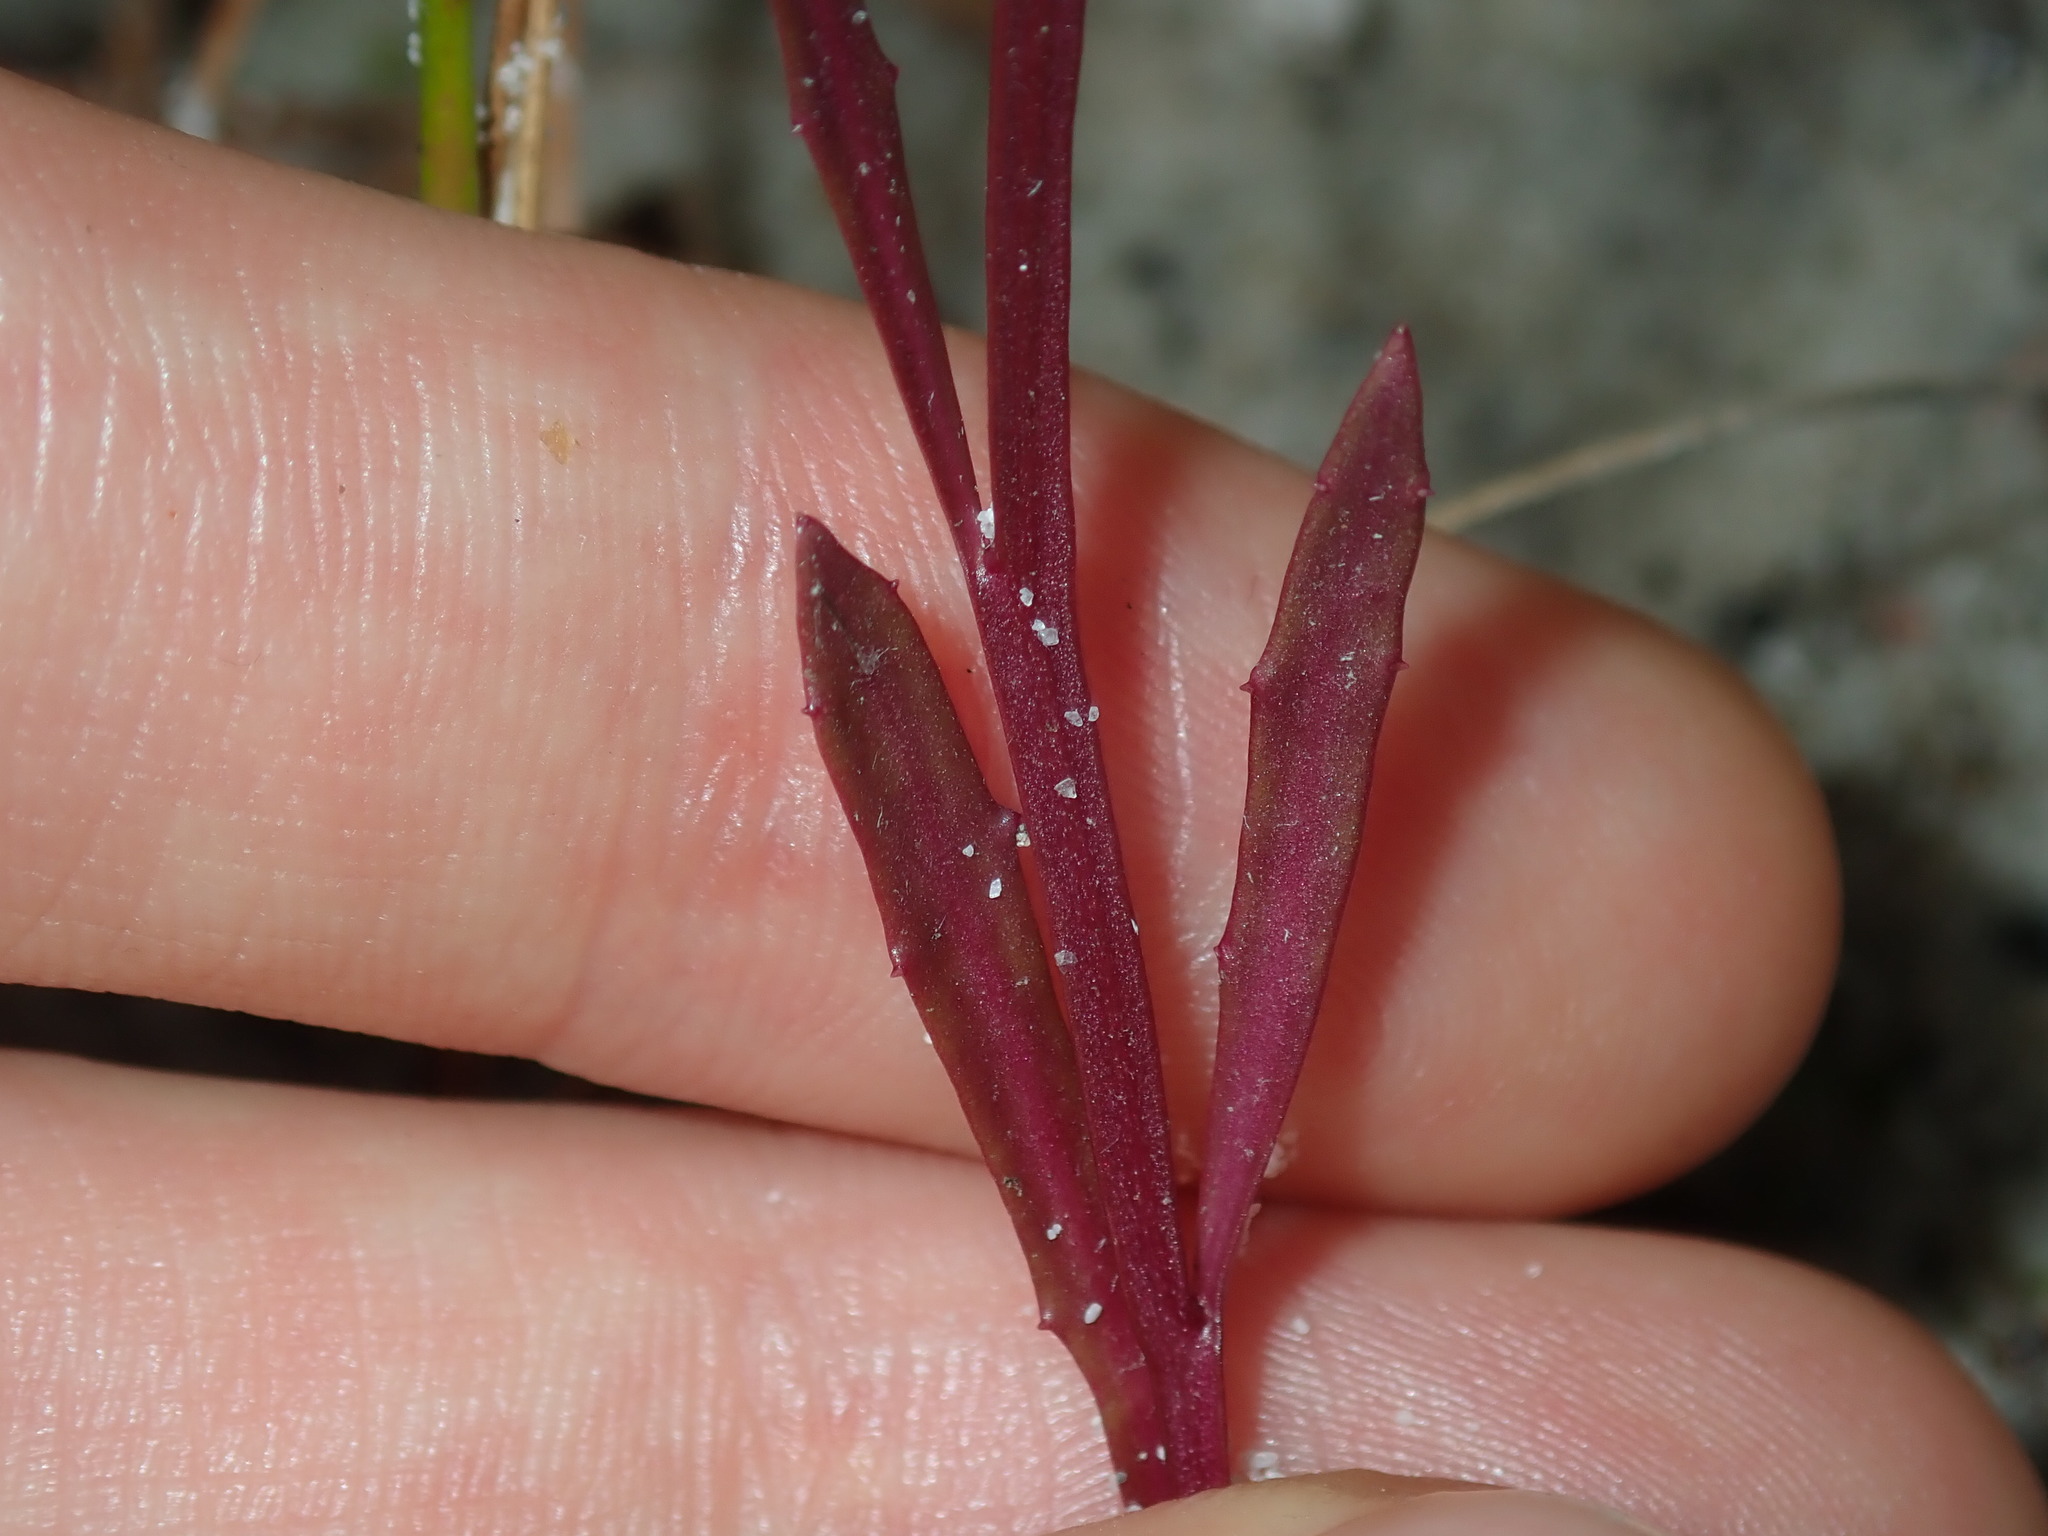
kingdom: Plantae
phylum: Tracheophyta
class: Magnoliopsida
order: Asterales
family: Campanulaceae
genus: Lobelia
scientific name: Lobelia anceps
